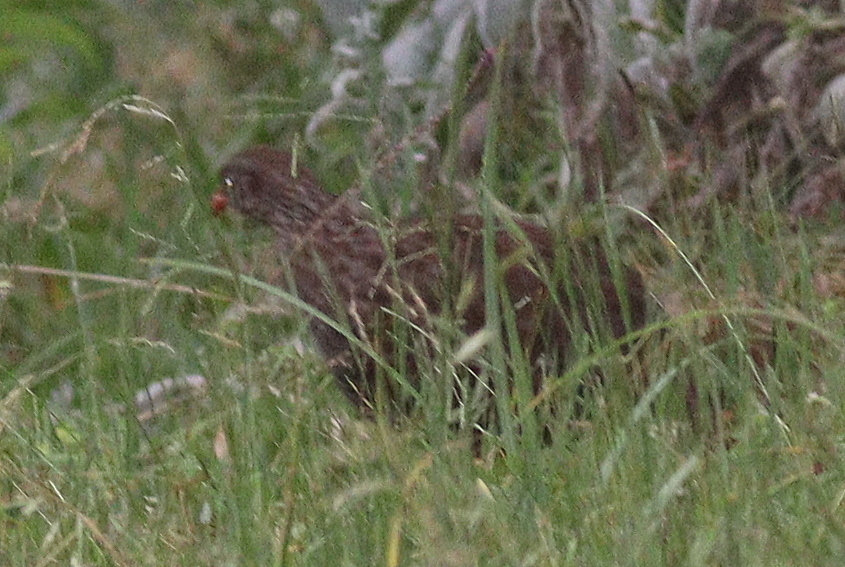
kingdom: Animalia
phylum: Chordata
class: Aves
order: Galliformes
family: Phasianidae
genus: Pternistis
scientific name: Pternistis squamatus
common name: Scaly francolin
